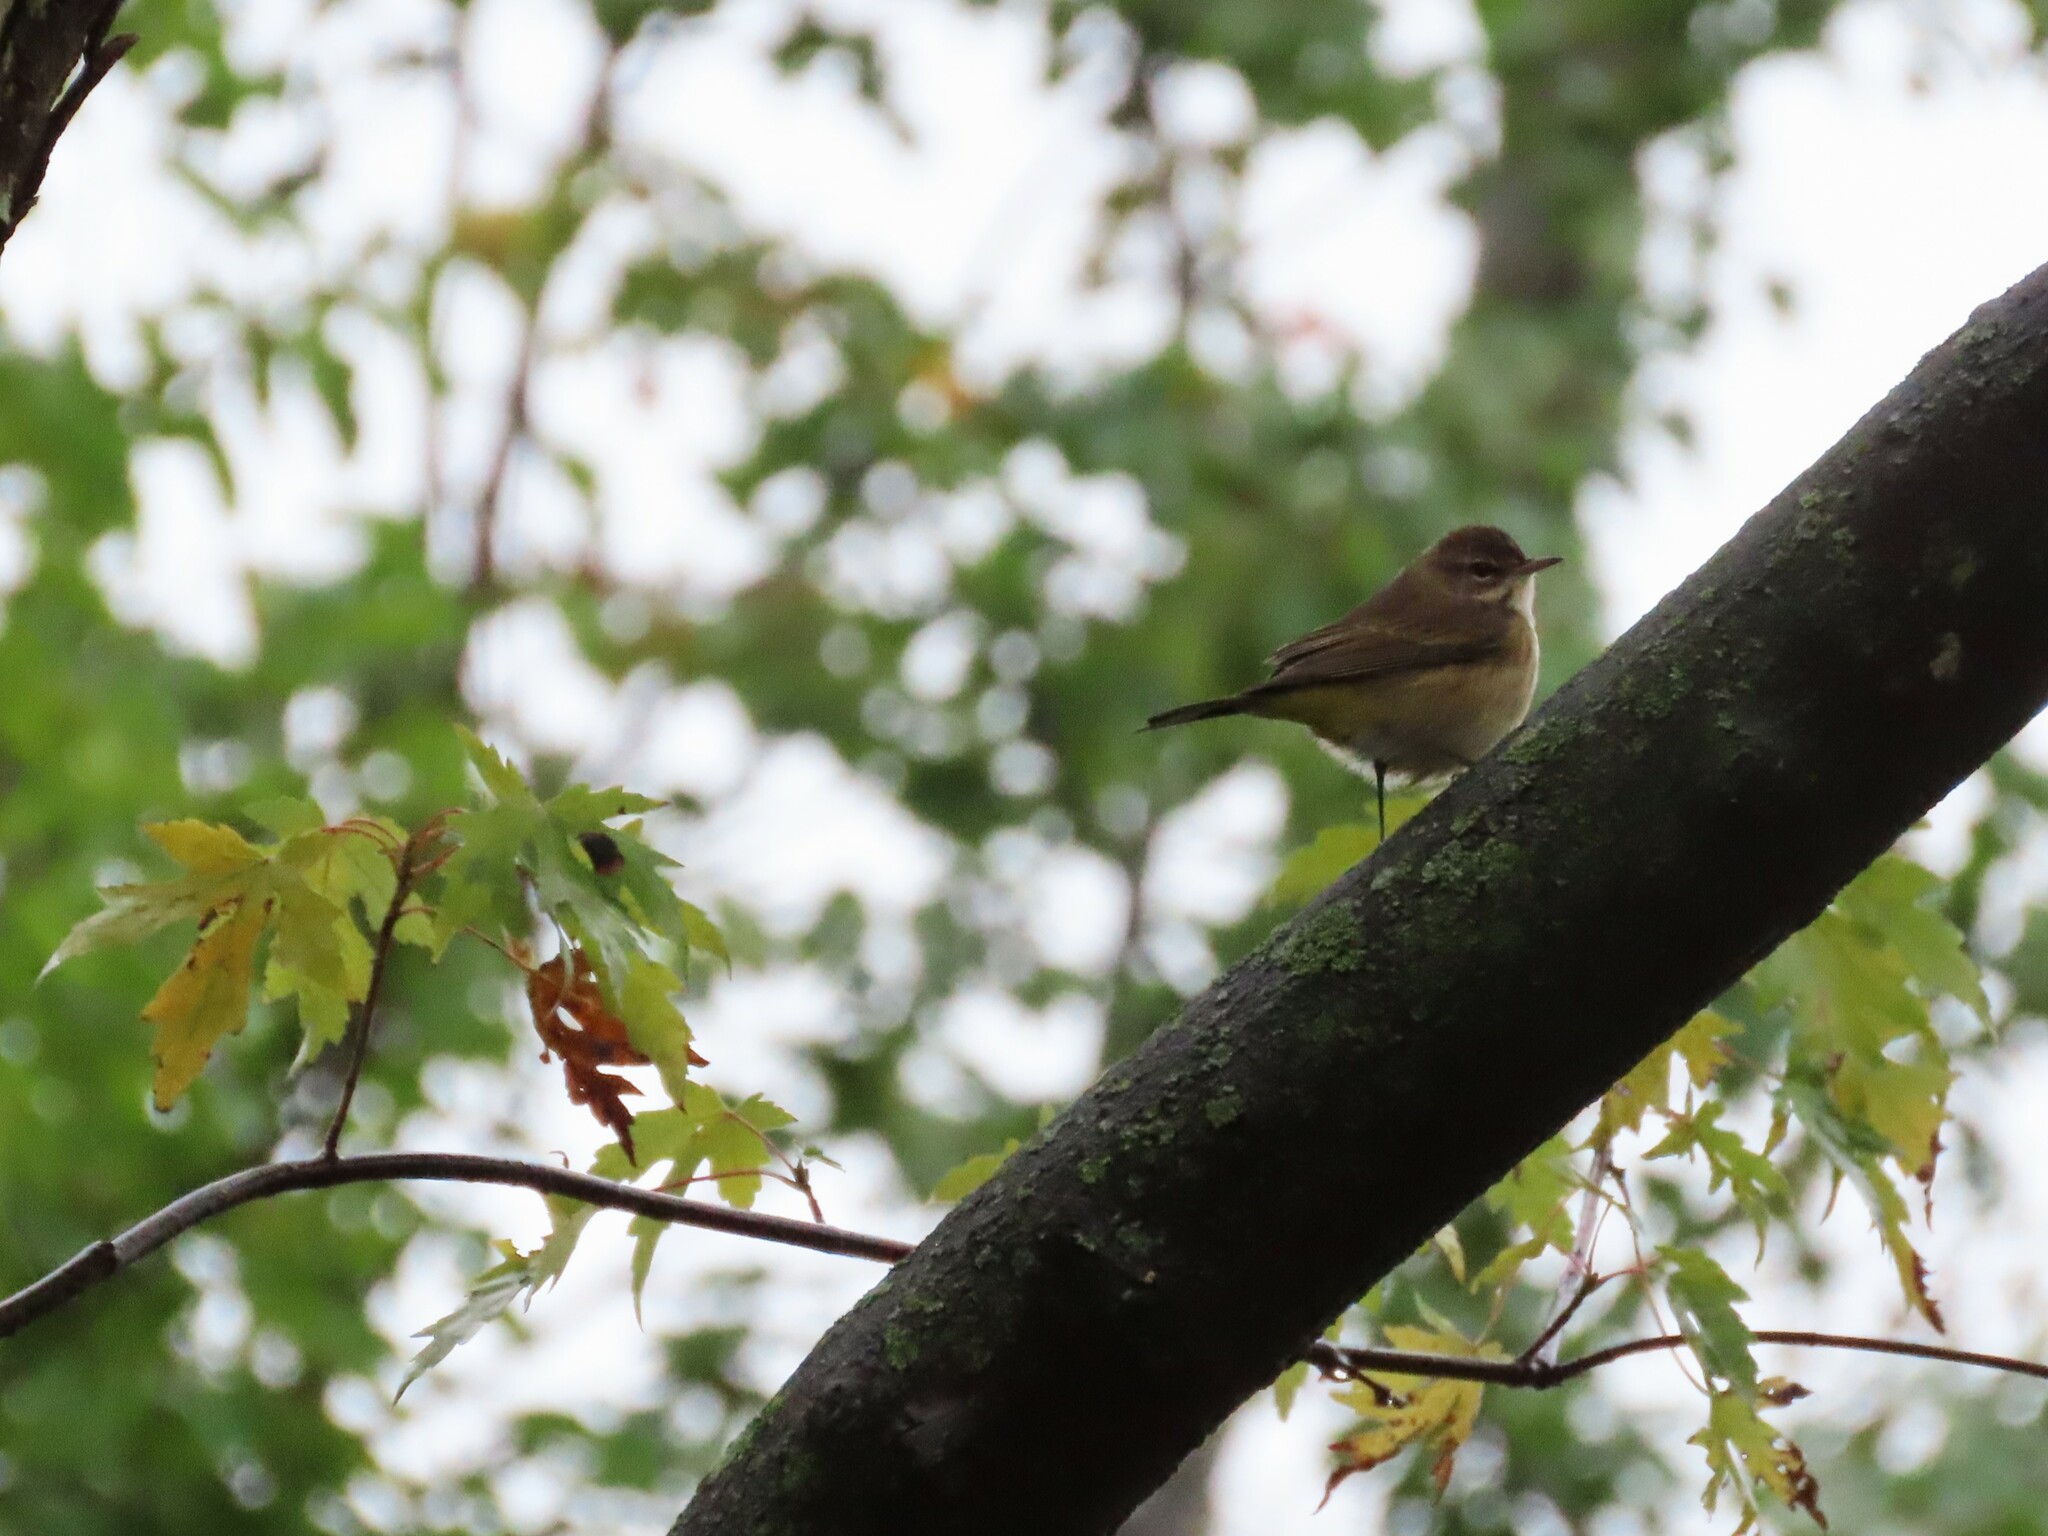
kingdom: Animalia
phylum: Chordata
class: Aves
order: Passeriformes
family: Parulidae
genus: Setophaga
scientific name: Setophaga palmarum
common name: Palm warbler
